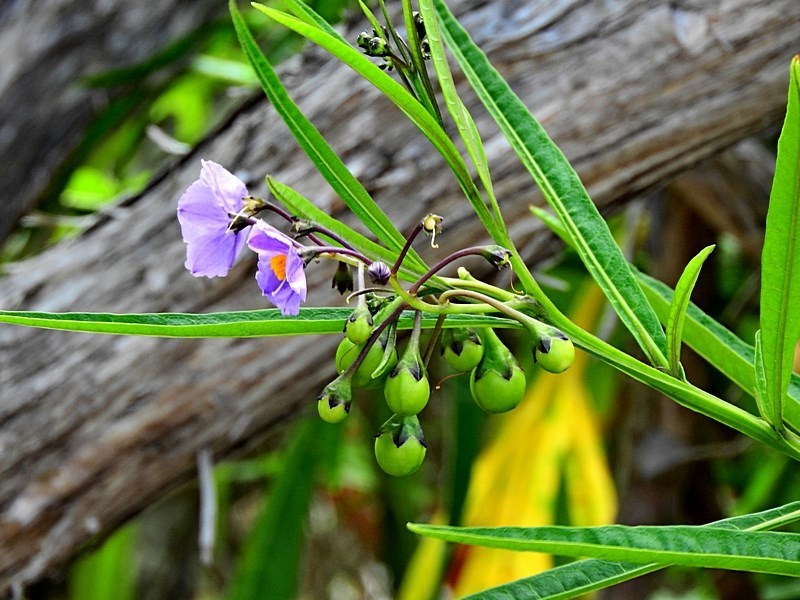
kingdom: Plantae
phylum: Tracheophyta
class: Magnoliopsida
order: Solanales
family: Solanaceae
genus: Solanum
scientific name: Solanum vescum
